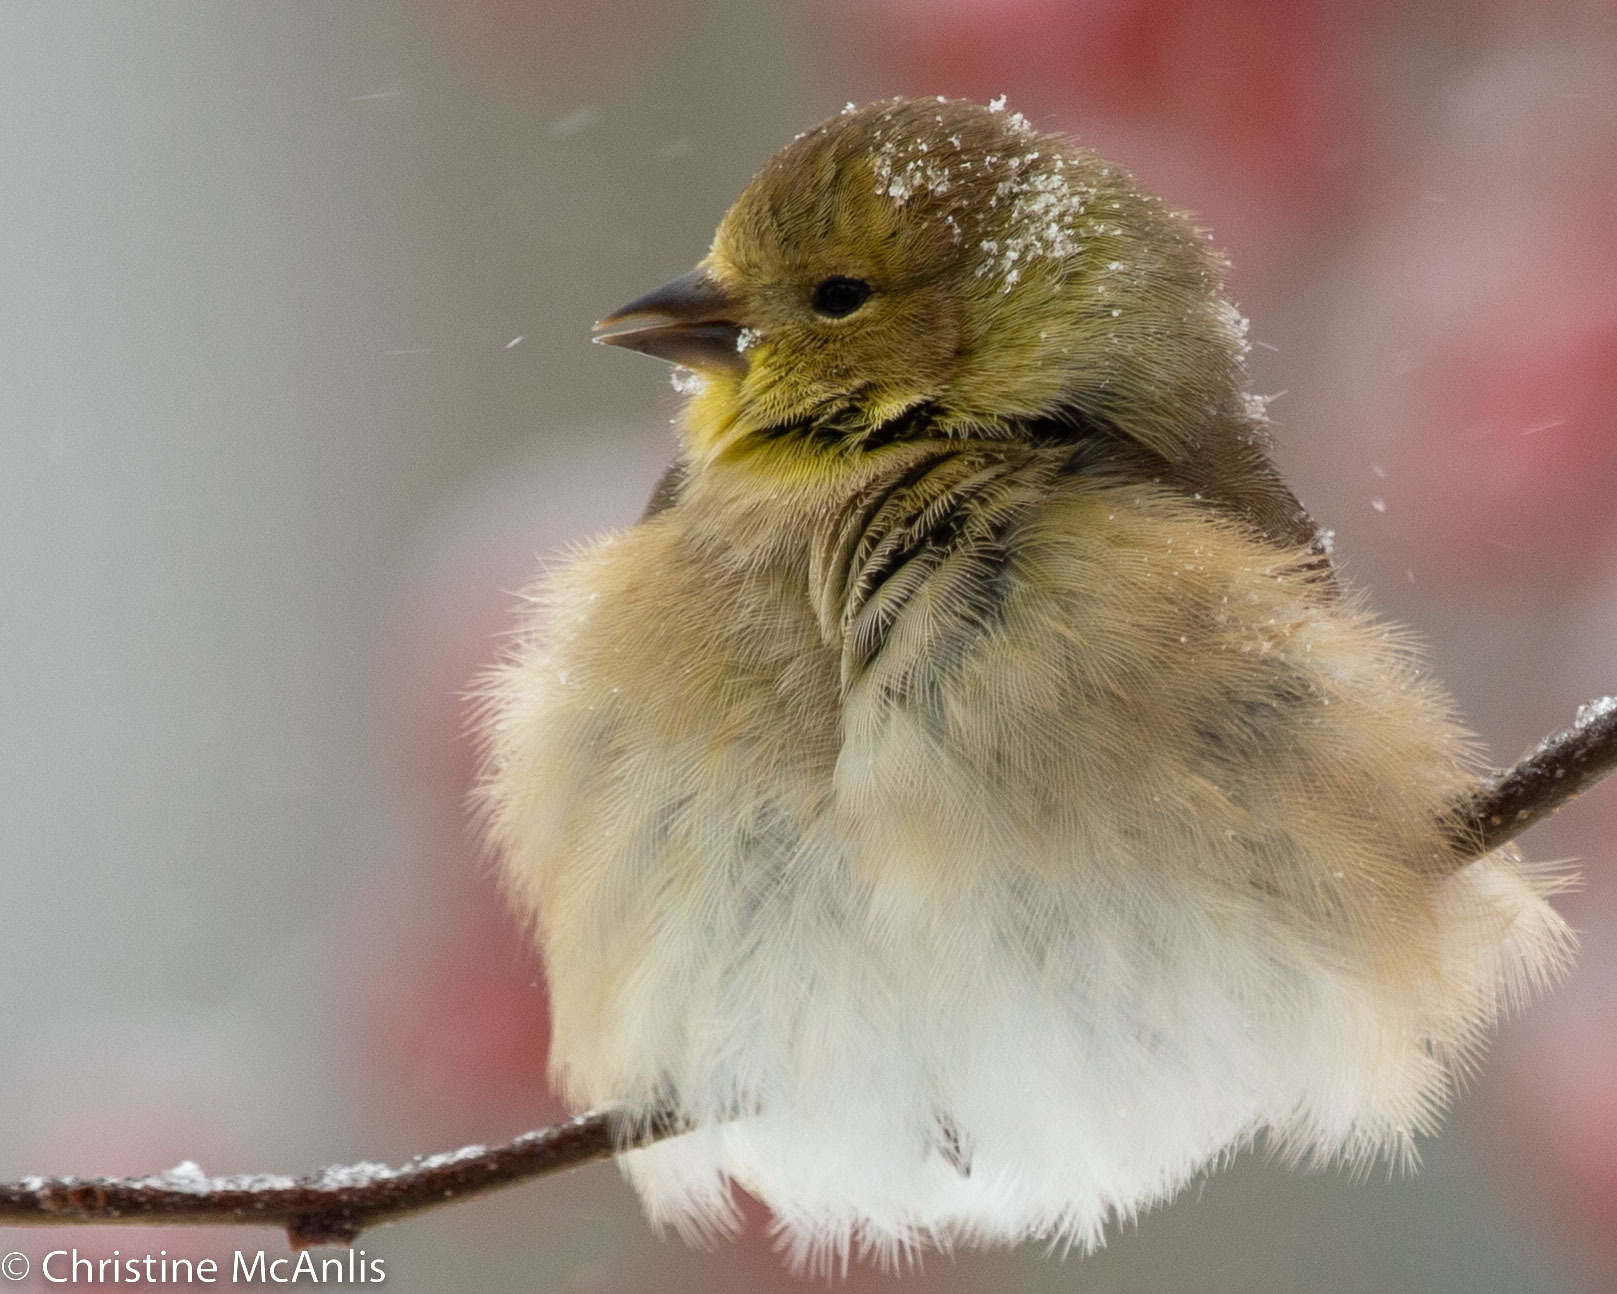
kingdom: Animalia
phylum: Chordata
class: Aves
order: Passeriformes
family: Fringillidae
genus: Spinus
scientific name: Spinus tristis
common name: American goldfinch
